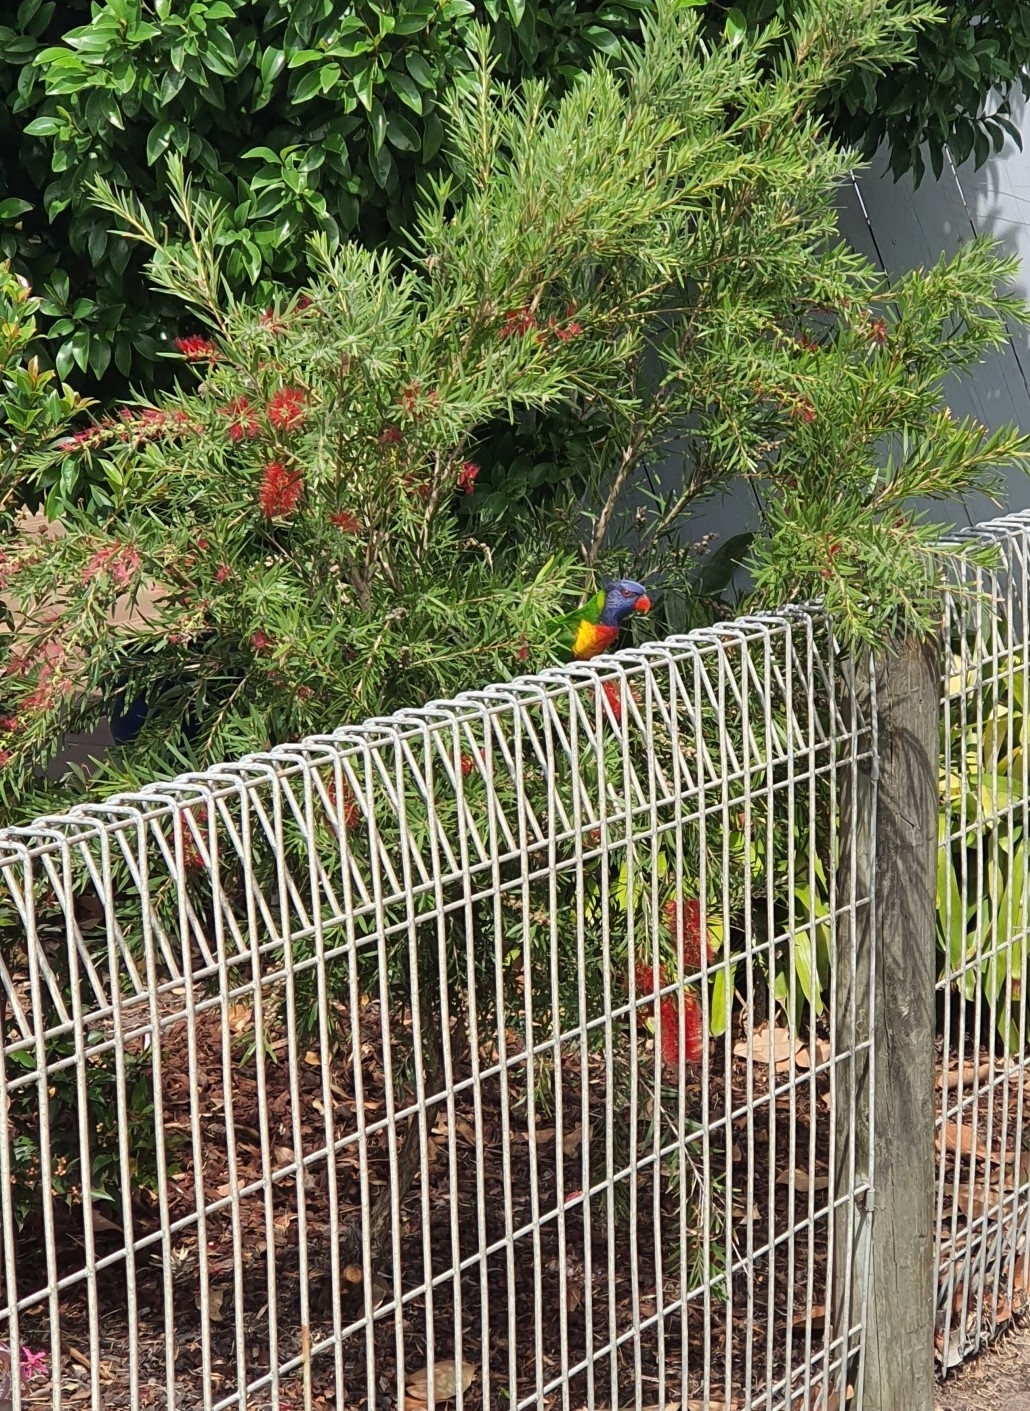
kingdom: Animalia
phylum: Chordata
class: Aves
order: Psittaciformes
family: Psittacidae
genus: Trichoglossus
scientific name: Trichoglossus haematodus
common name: Coconut lorikeet
